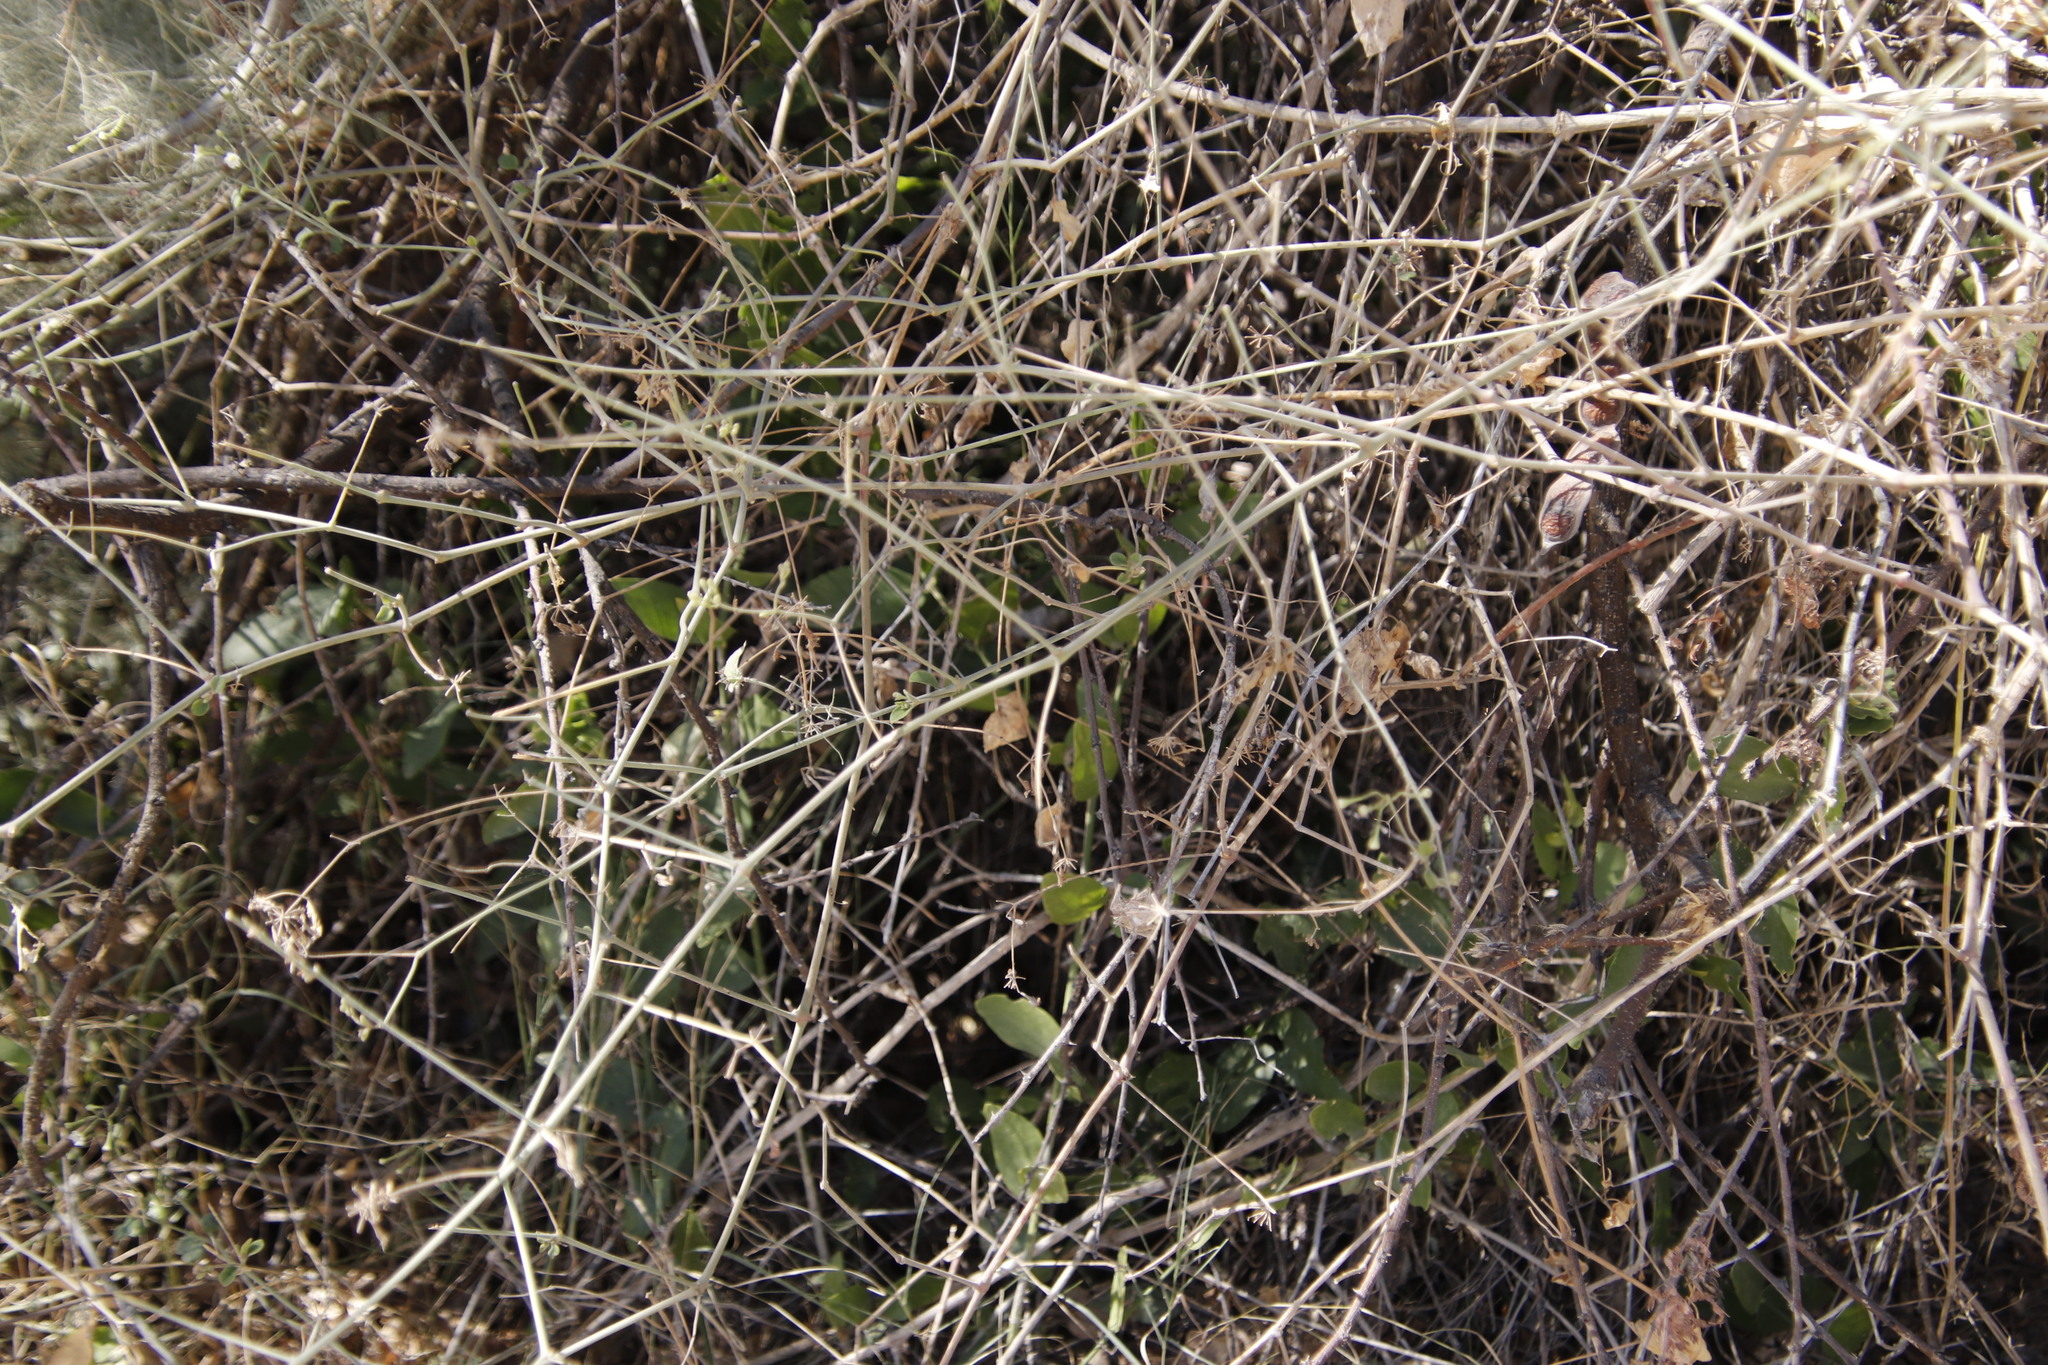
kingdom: Plantae
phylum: Tracheophyta
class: Magnoliopsida
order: Caryophyllales
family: Nyctaginaceae
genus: Commicarpus
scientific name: Commicarpus plumbagineus
